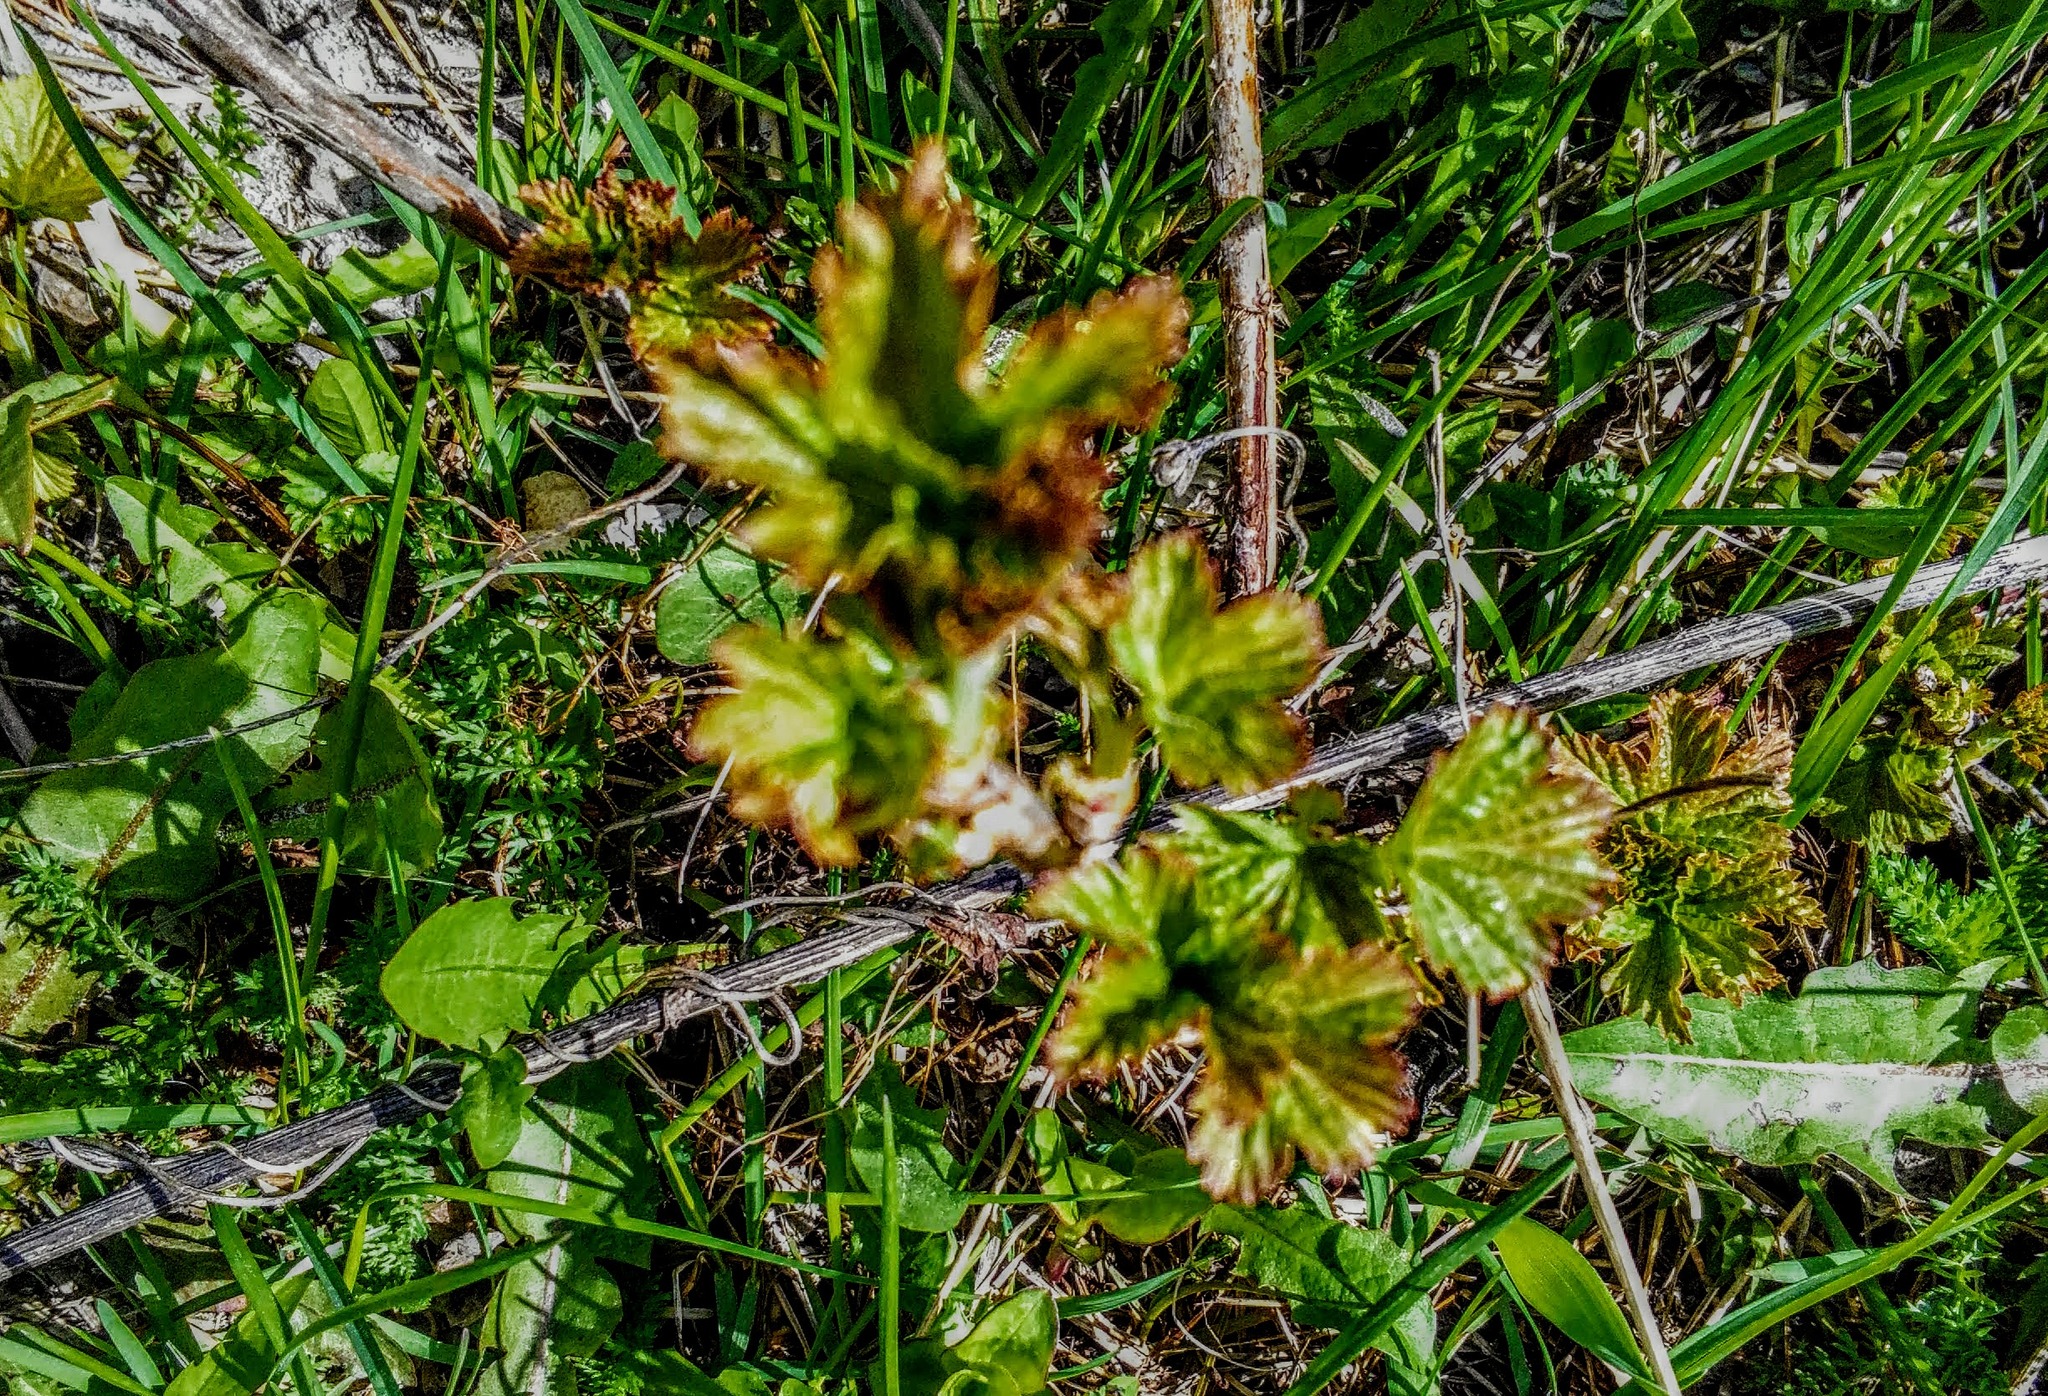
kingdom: Plantae
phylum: Tracheophyta
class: Magnoliopsida
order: Saxifragales
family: Grossulariaceae
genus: Ribes
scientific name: Ribes nigrum
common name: Black currant
